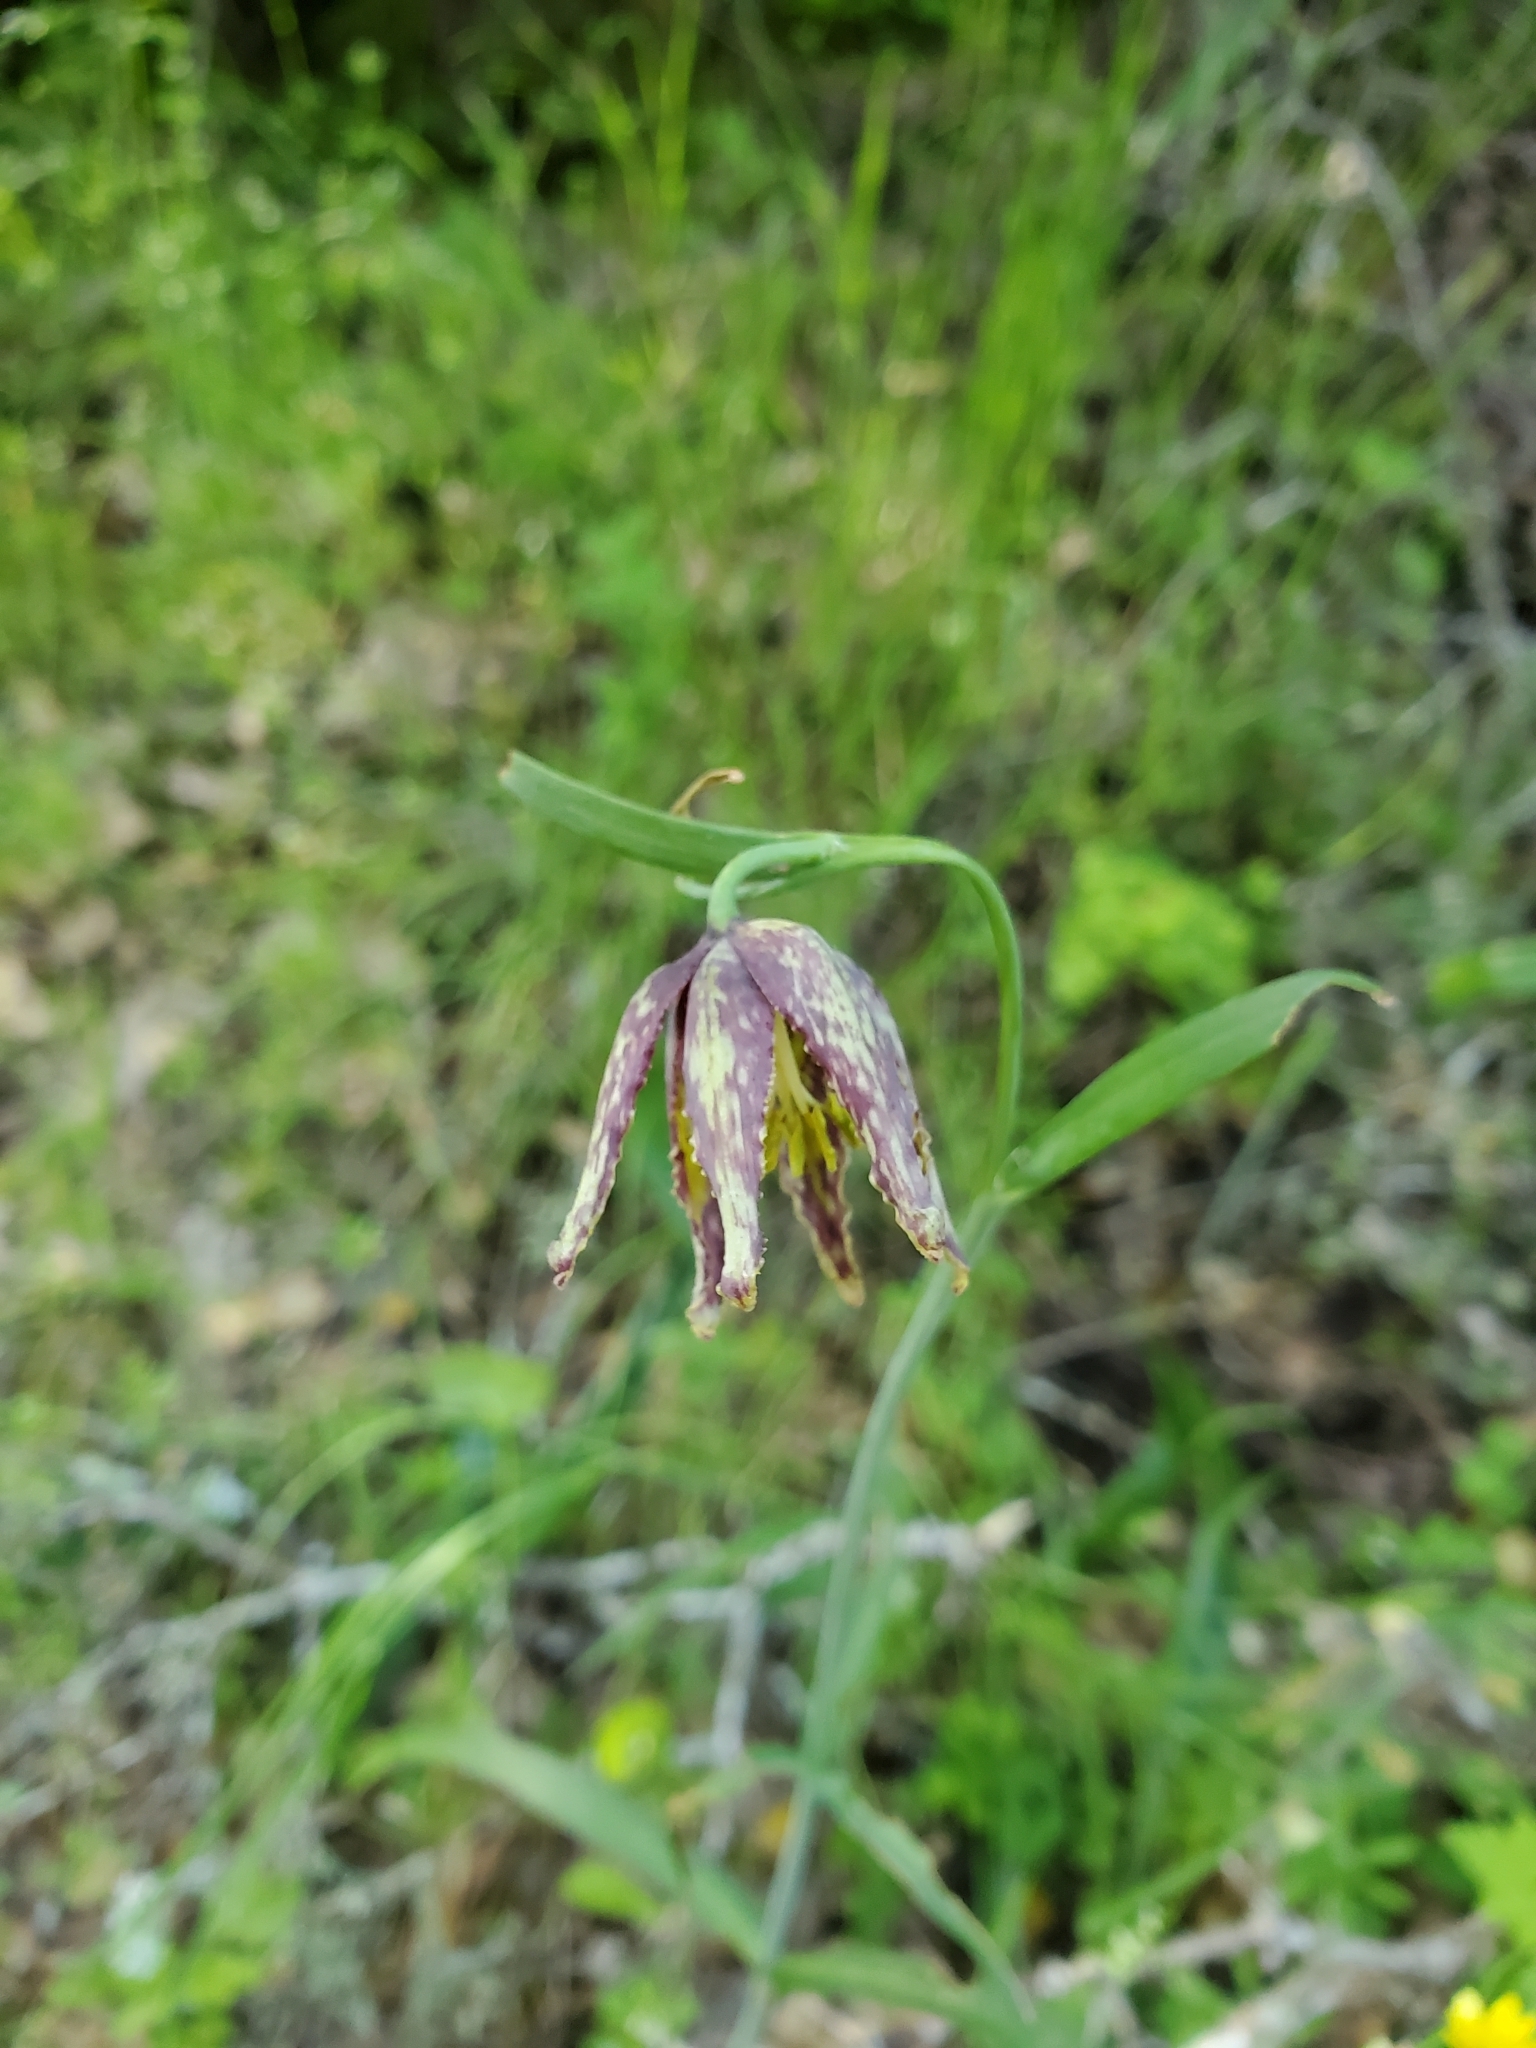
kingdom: Plantae
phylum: Tracheophyta
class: Liliopsida
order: Liliales
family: Liliaceae
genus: Fritillaria
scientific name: Fritillaria affinis
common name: Ojai fritillary
